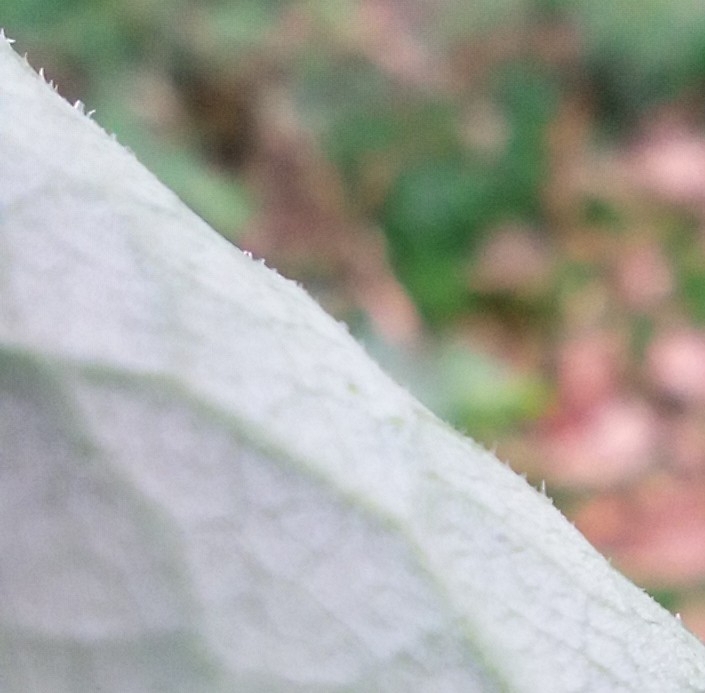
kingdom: Plantae
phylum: Tracheophyta
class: Magnoliopsida
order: Caryophyllales
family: Polygonaceae
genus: Reynoutria
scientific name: Reynoutria bohemica
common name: Bohemian knotweed
